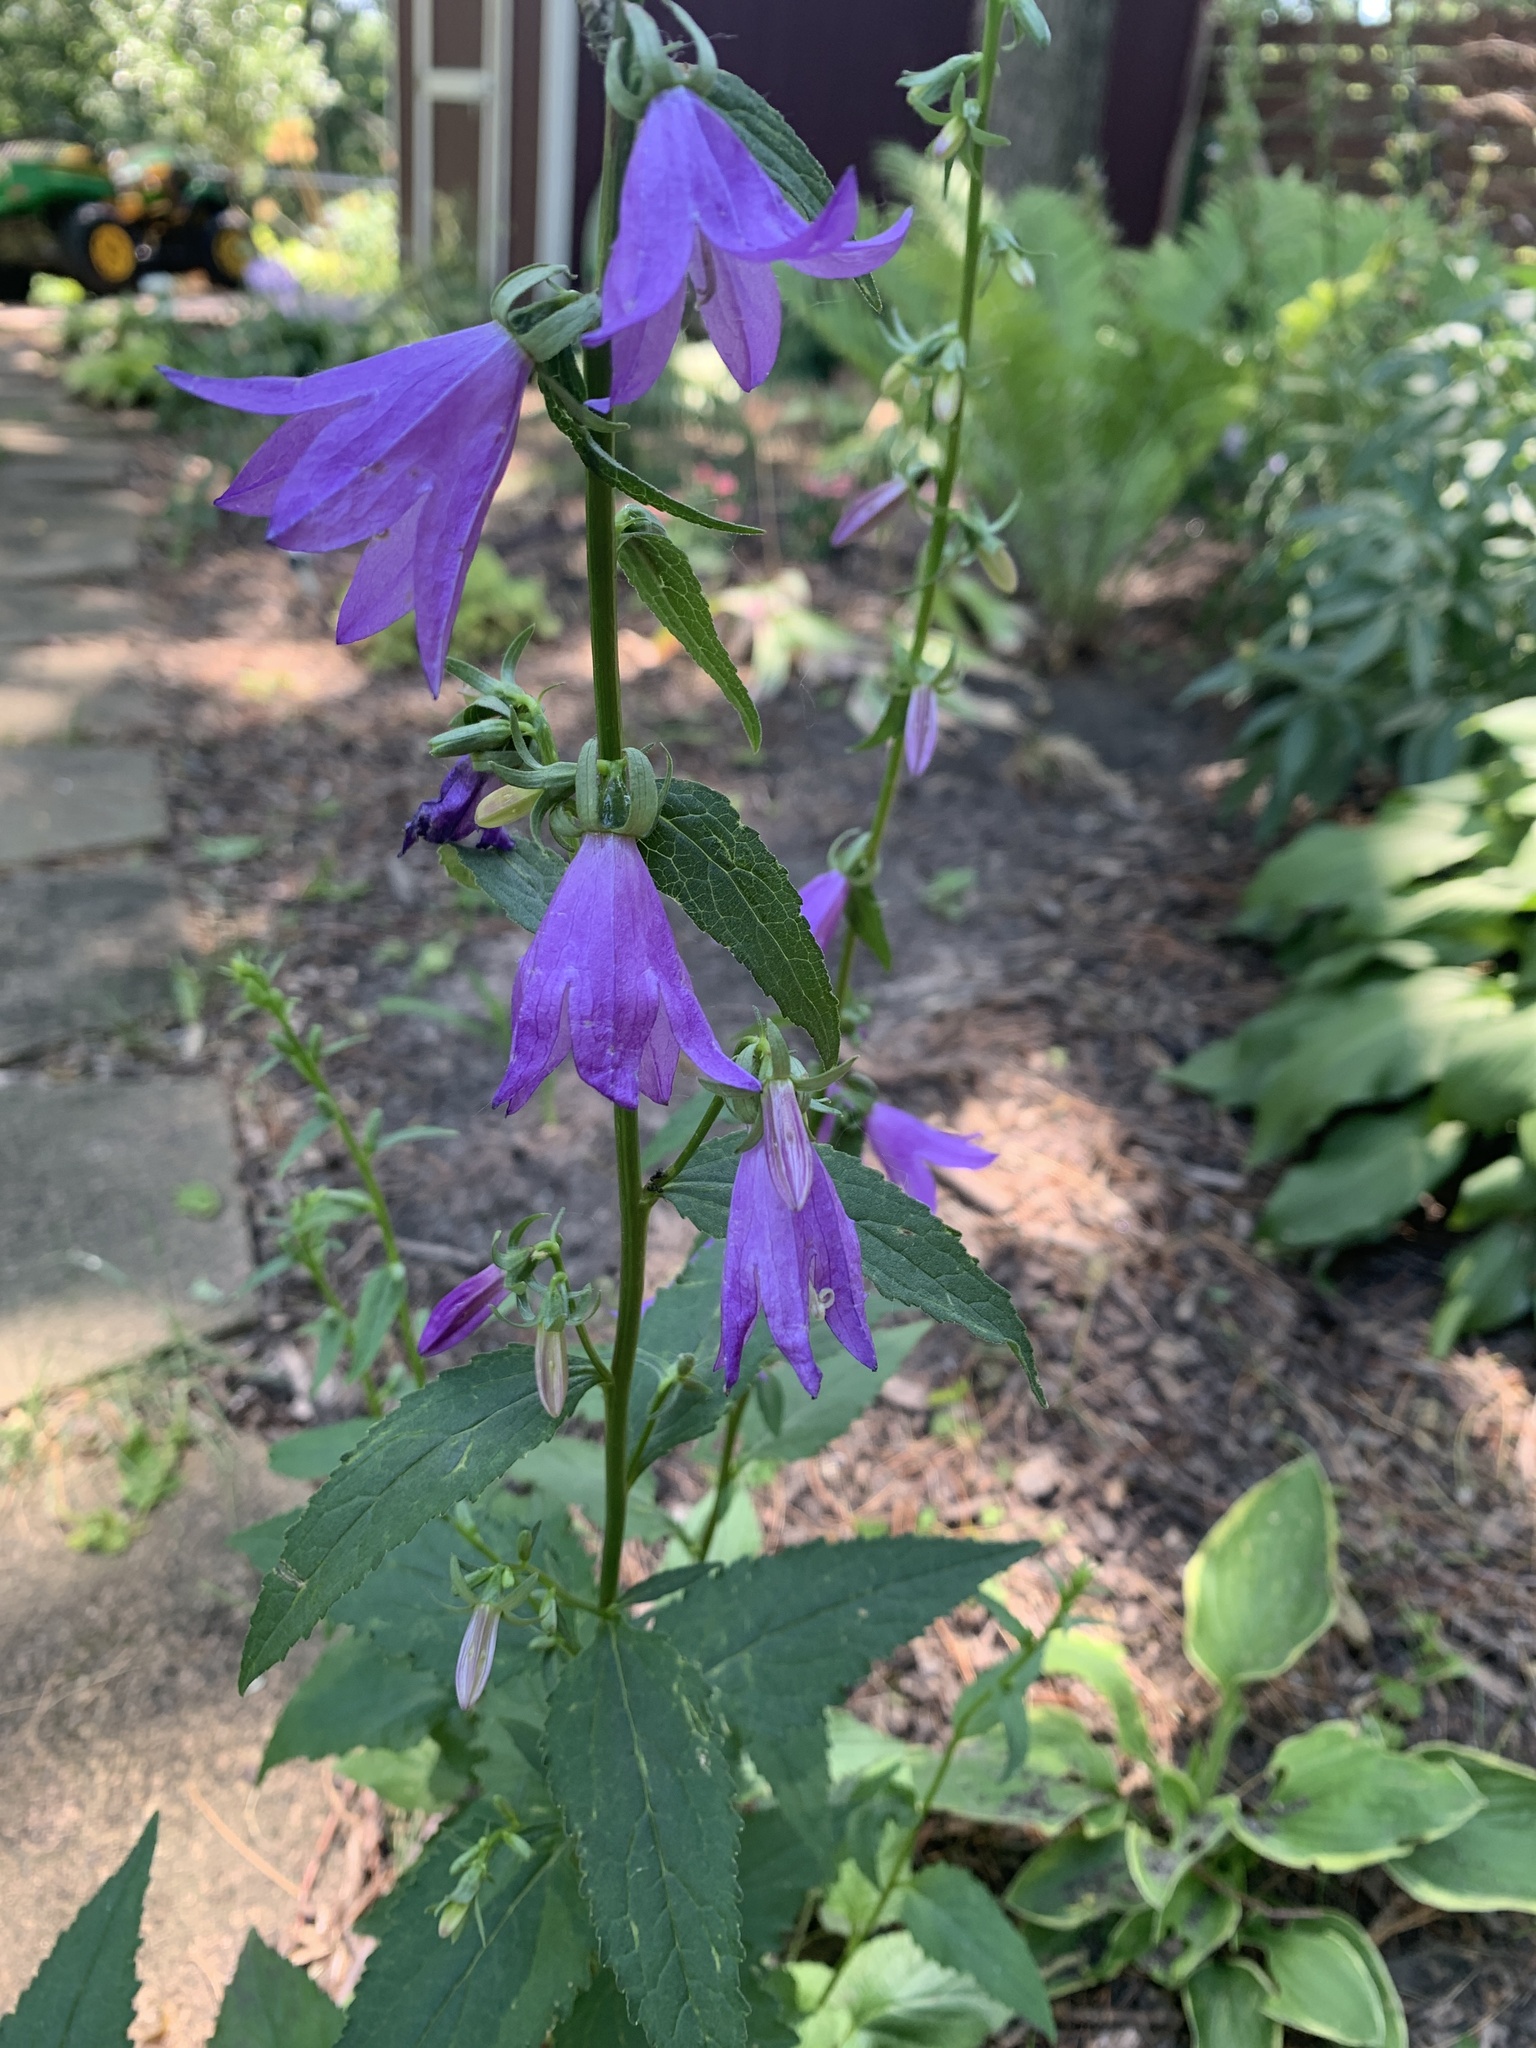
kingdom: Plantae
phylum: Tracheophyta
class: Magnoliopsida
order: Asterales
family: Campanulaceae
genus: Campanula
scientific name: Campanula rapunculoides
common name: Creeping bellflower
